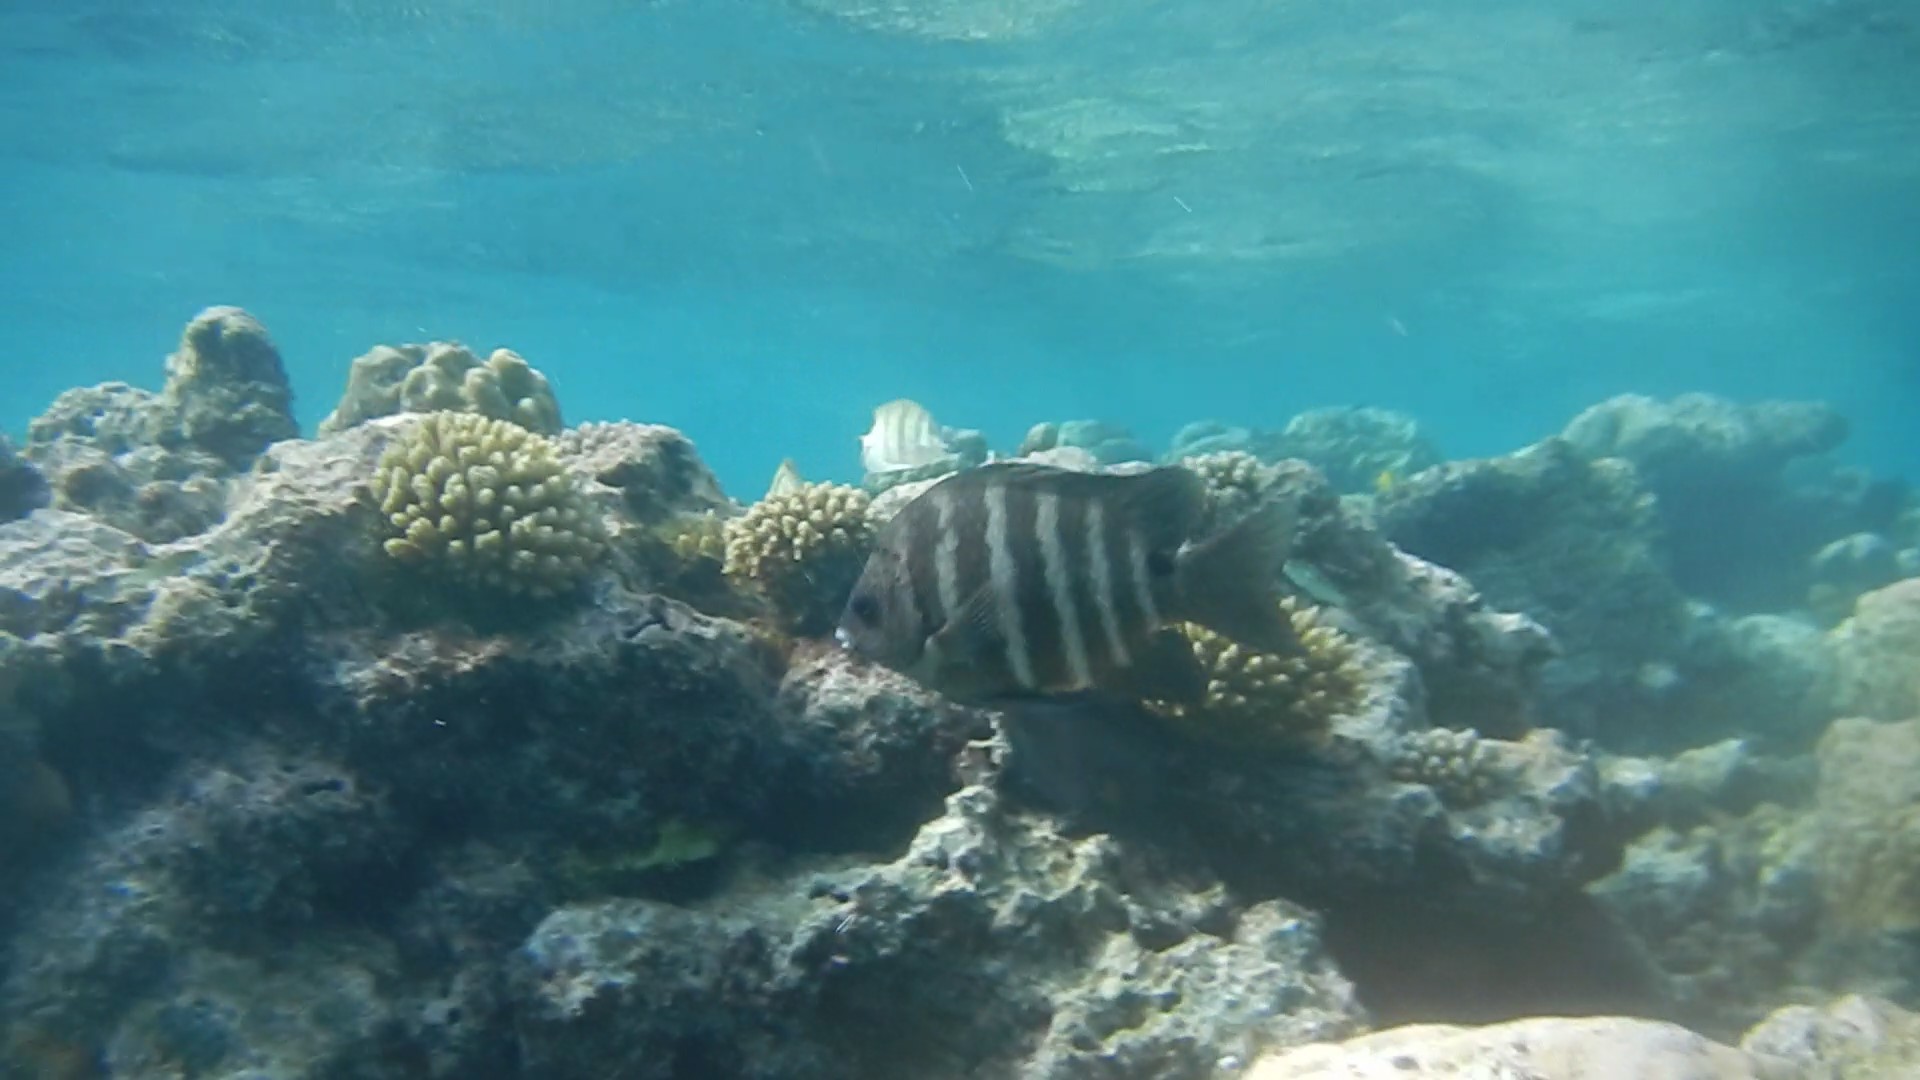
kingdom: Animalia
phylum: Chordata
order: Perciformes
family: Pomacentridae
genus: Abudefduf
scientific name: Abudefduf sordidus
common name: Blackspot sergeant
